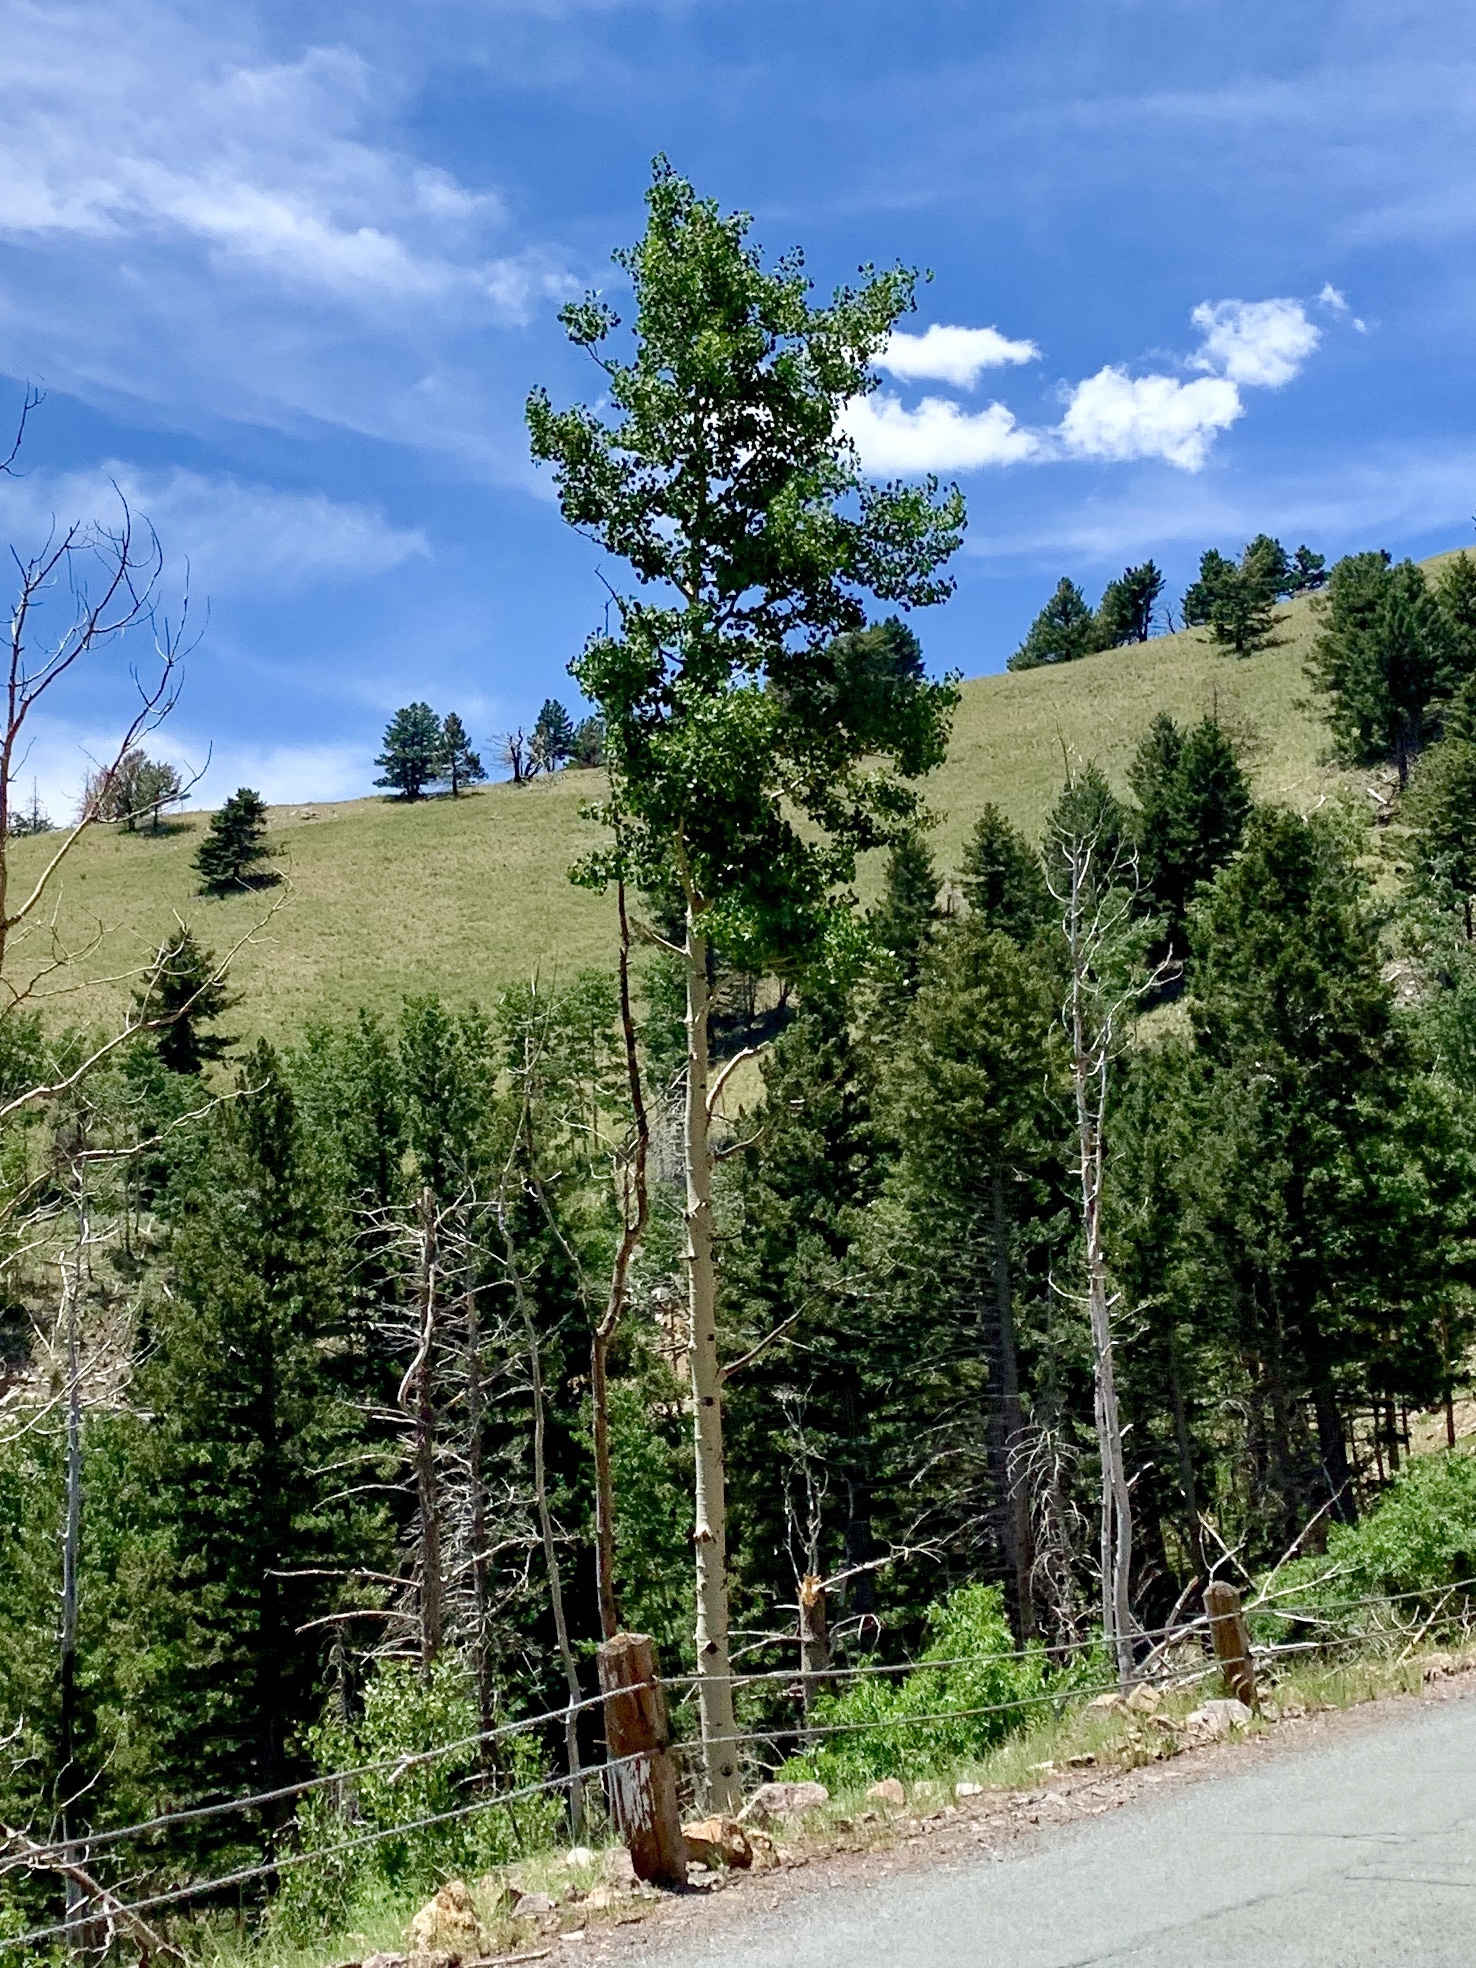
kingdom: Plantae
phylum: Tracheophyta
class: Magnoliopsida
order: Malpighiales
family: Salicaceae
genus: Populus
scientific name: Populus tremuloides
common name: Quaking aspen
